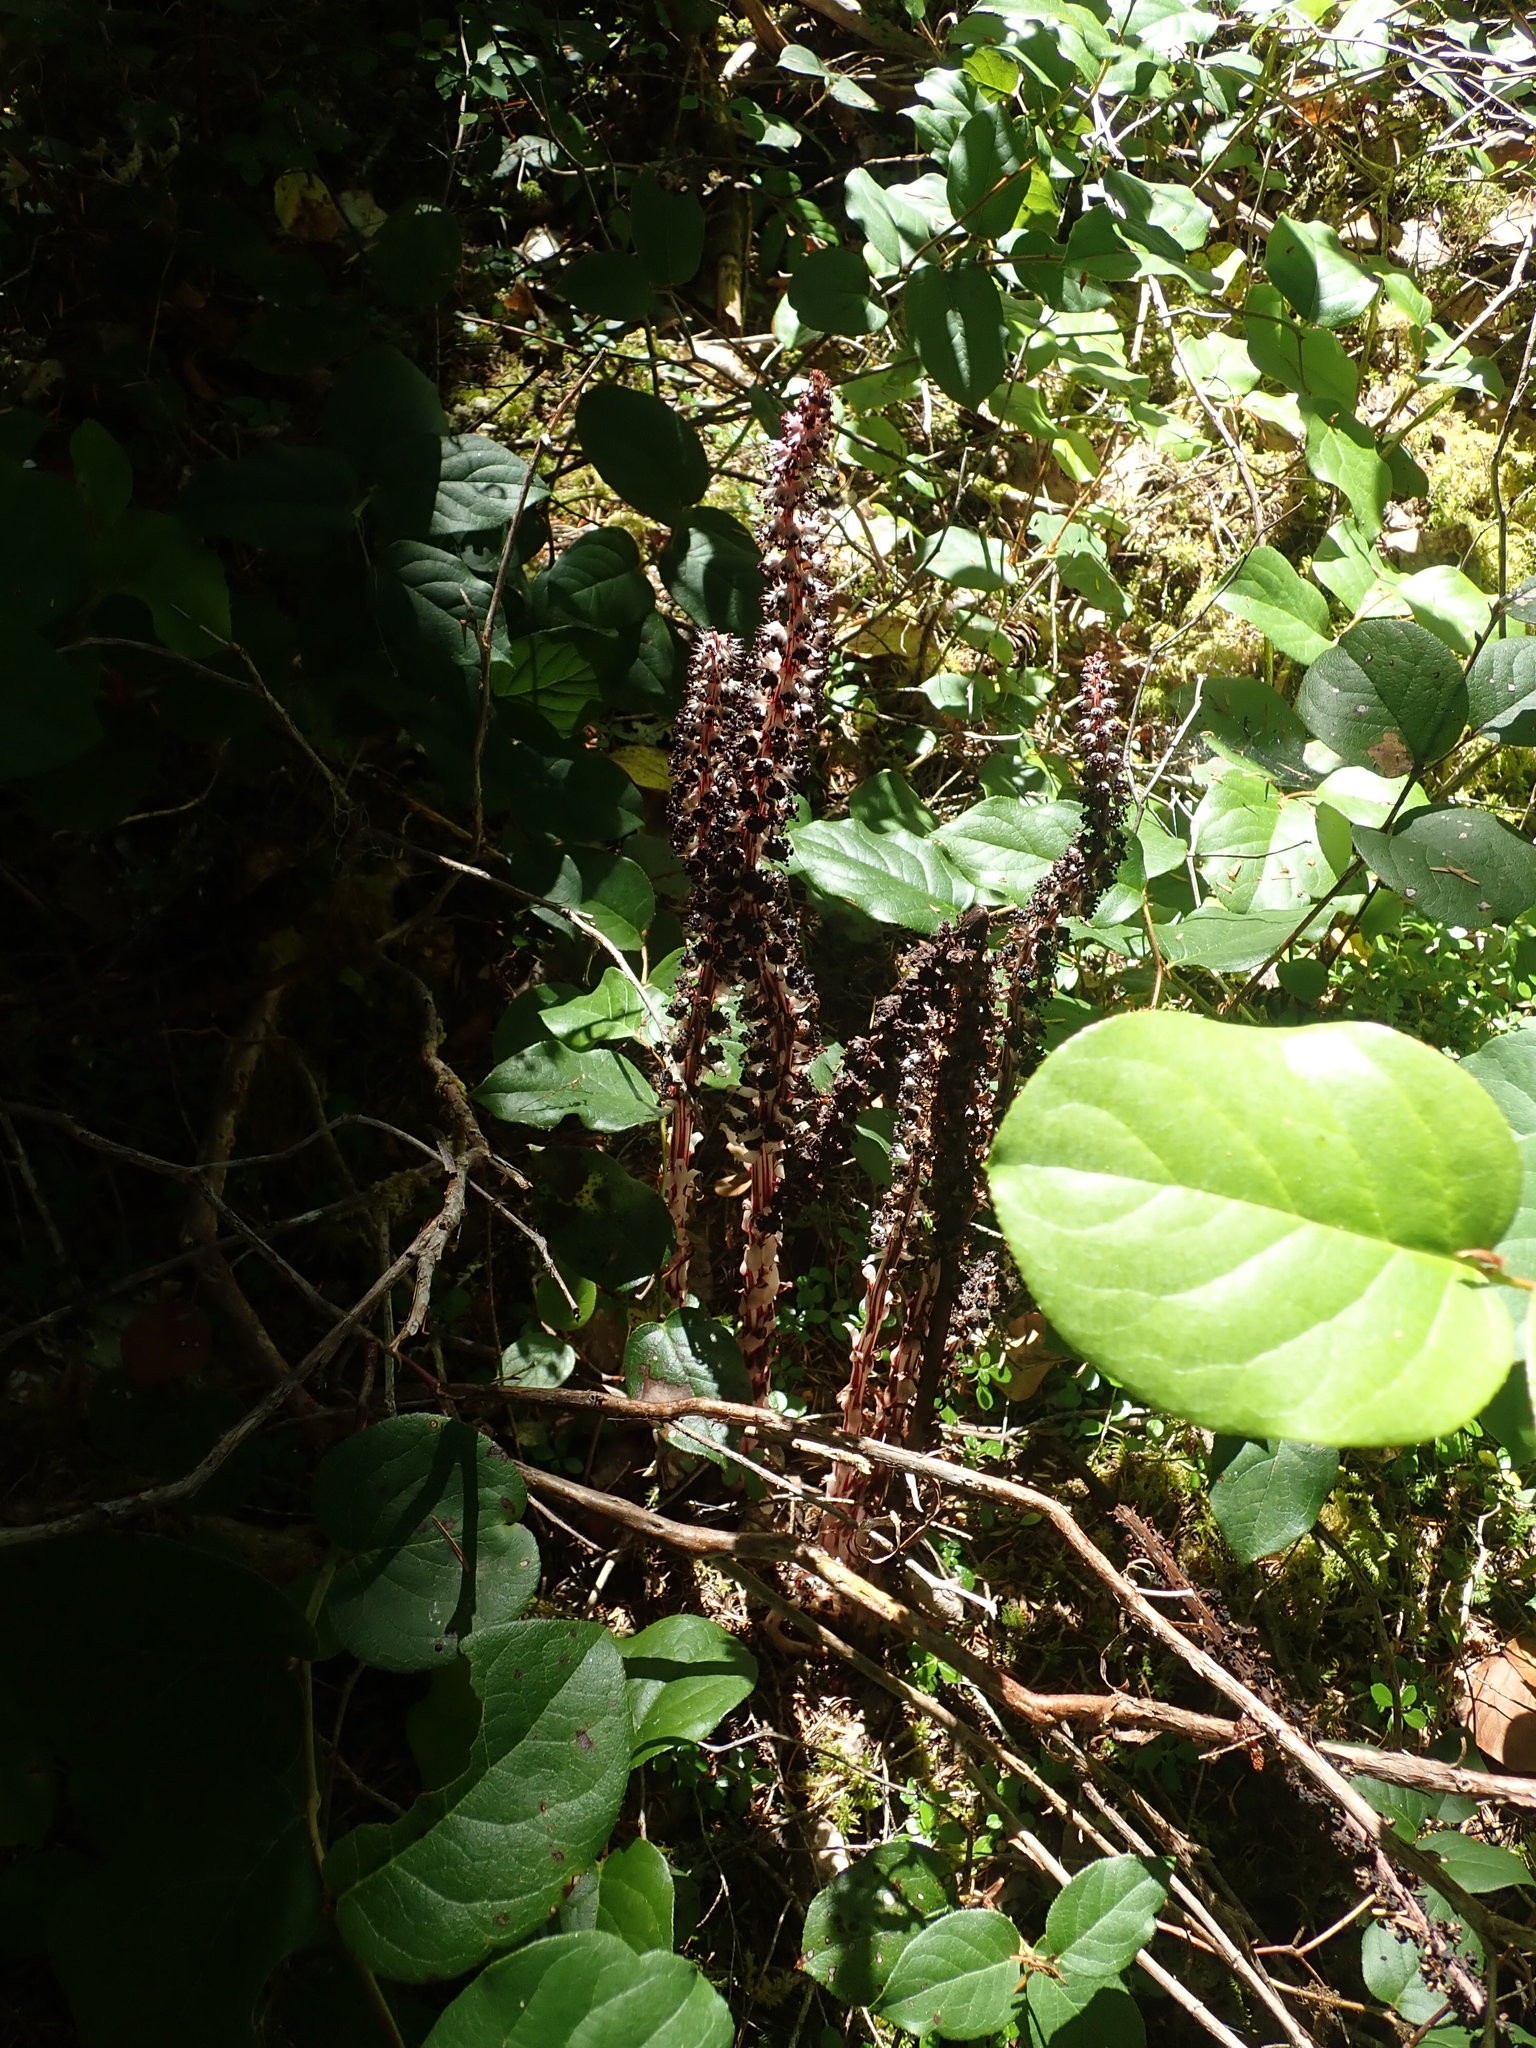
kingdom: Plantae
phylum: Tracheophyta
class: Magnoliopsida
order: Ericales
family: Ericaceae
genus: Allotropa
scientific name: Allotropa virgata
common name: Candy-striped allotropa
